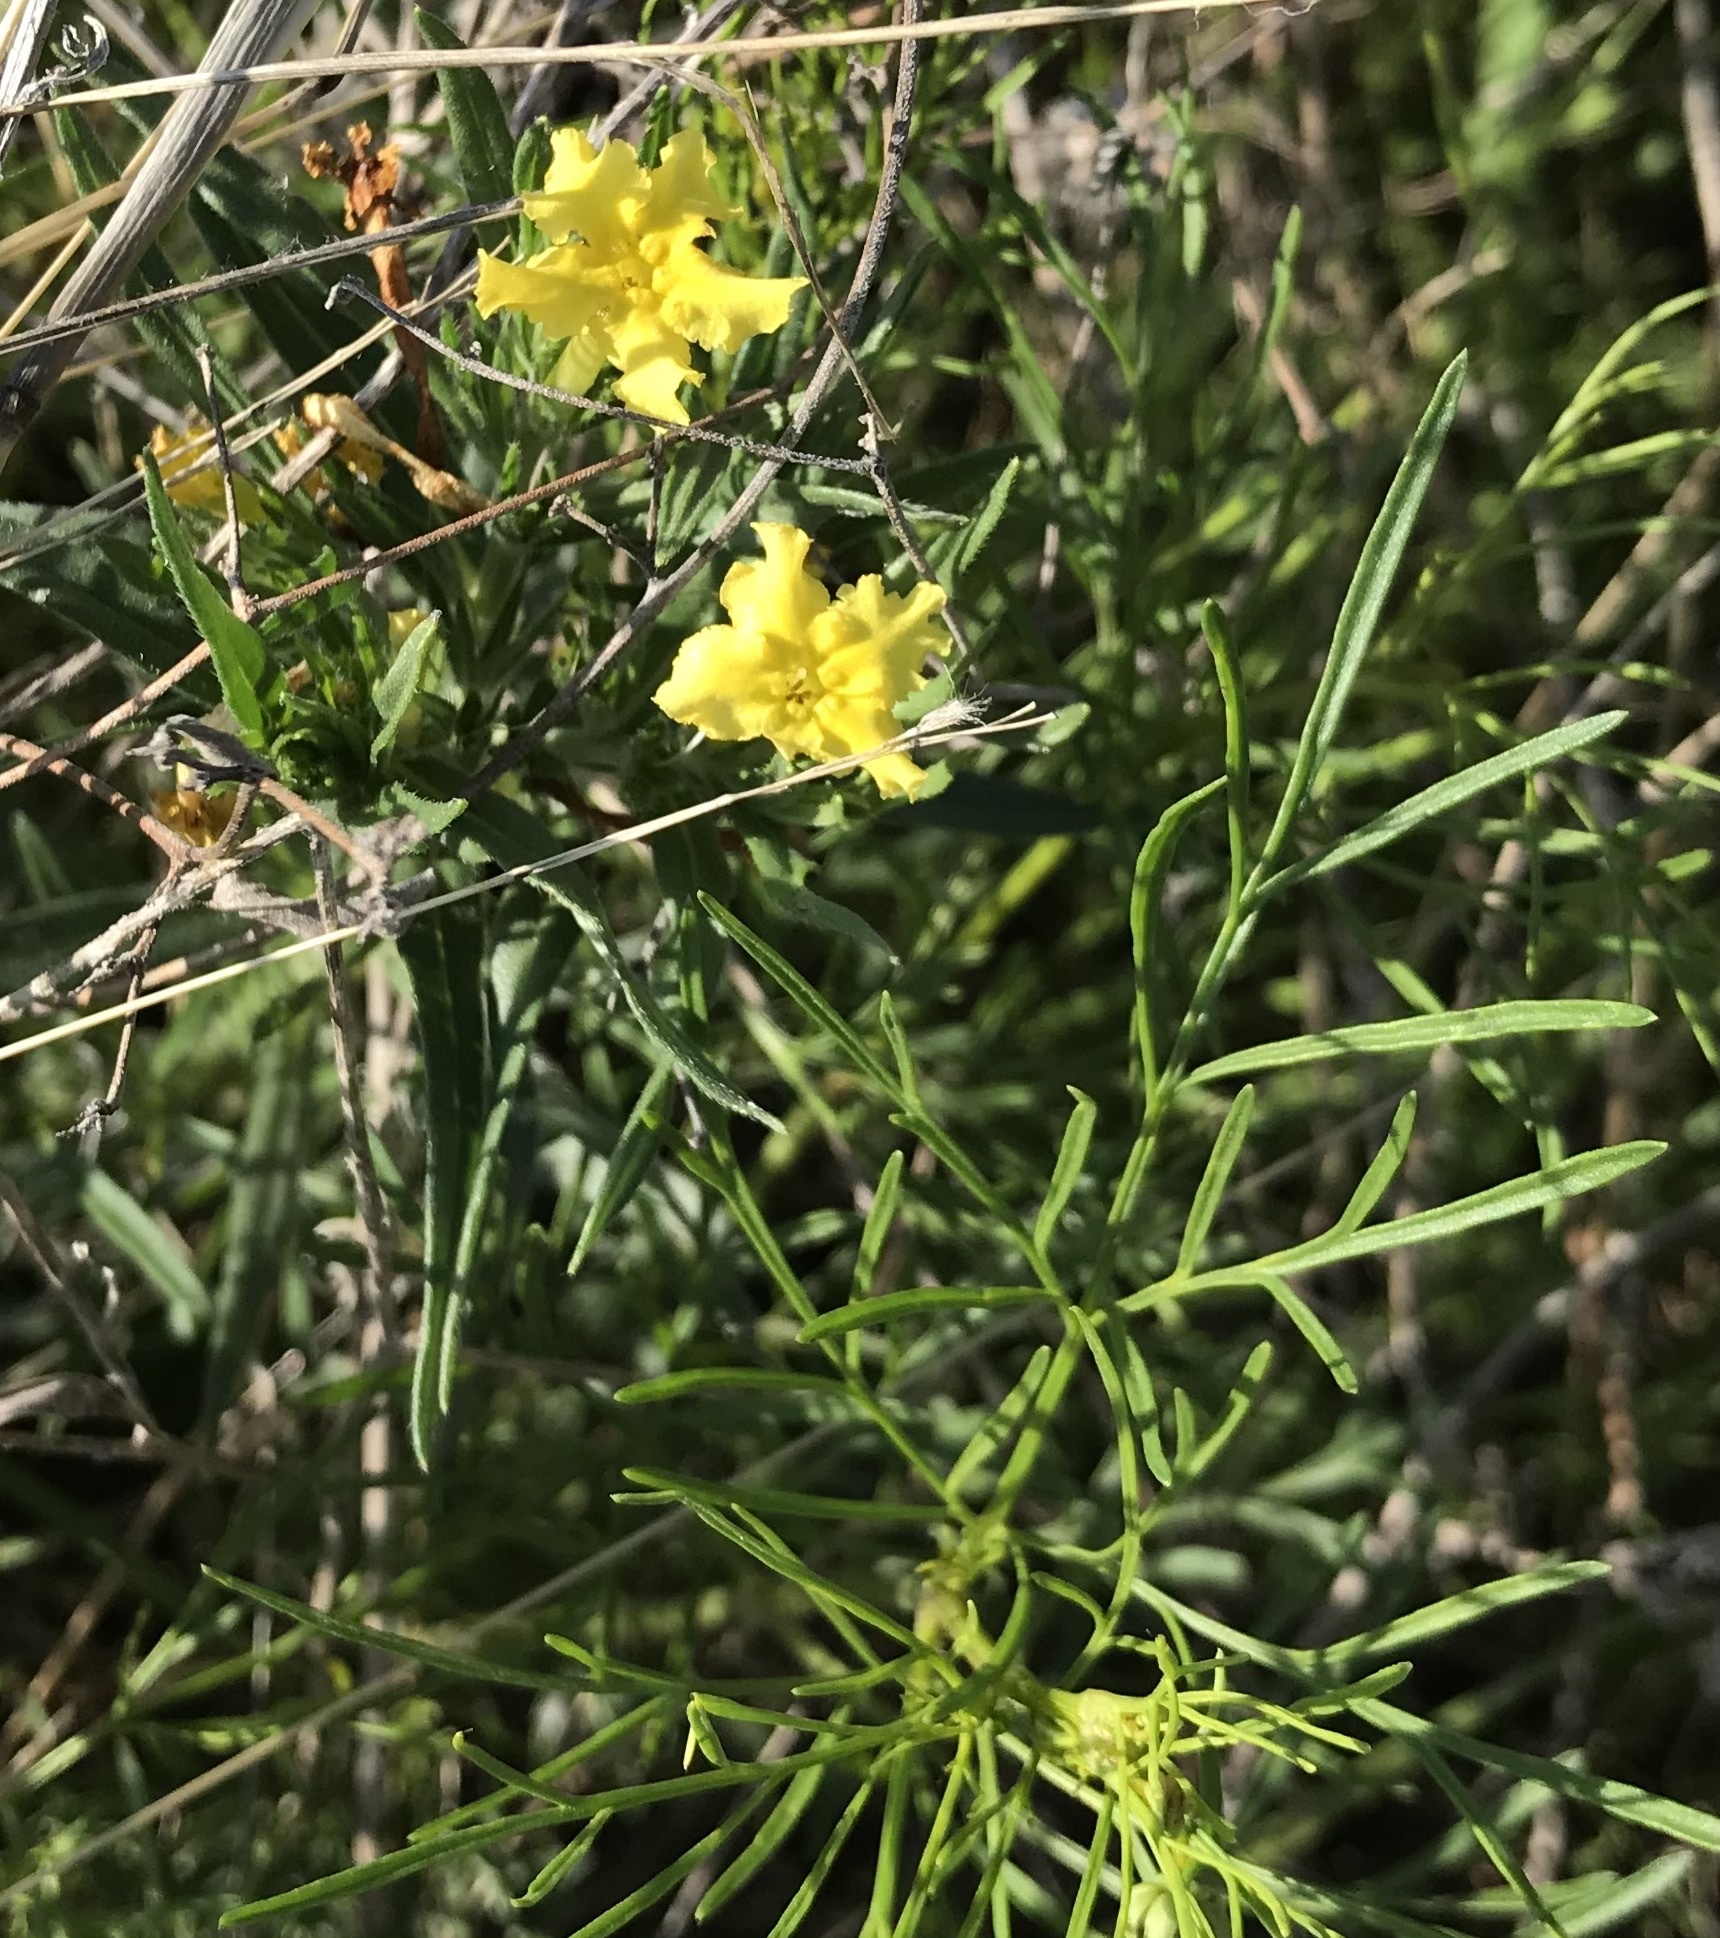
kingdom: Plantae
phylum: Tracheophyta
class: Magnoliopsida
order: Boraginales
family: Boraginaceae
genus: Lithospermum
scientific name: Lithospermum incisum
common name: Fringed gromwell
